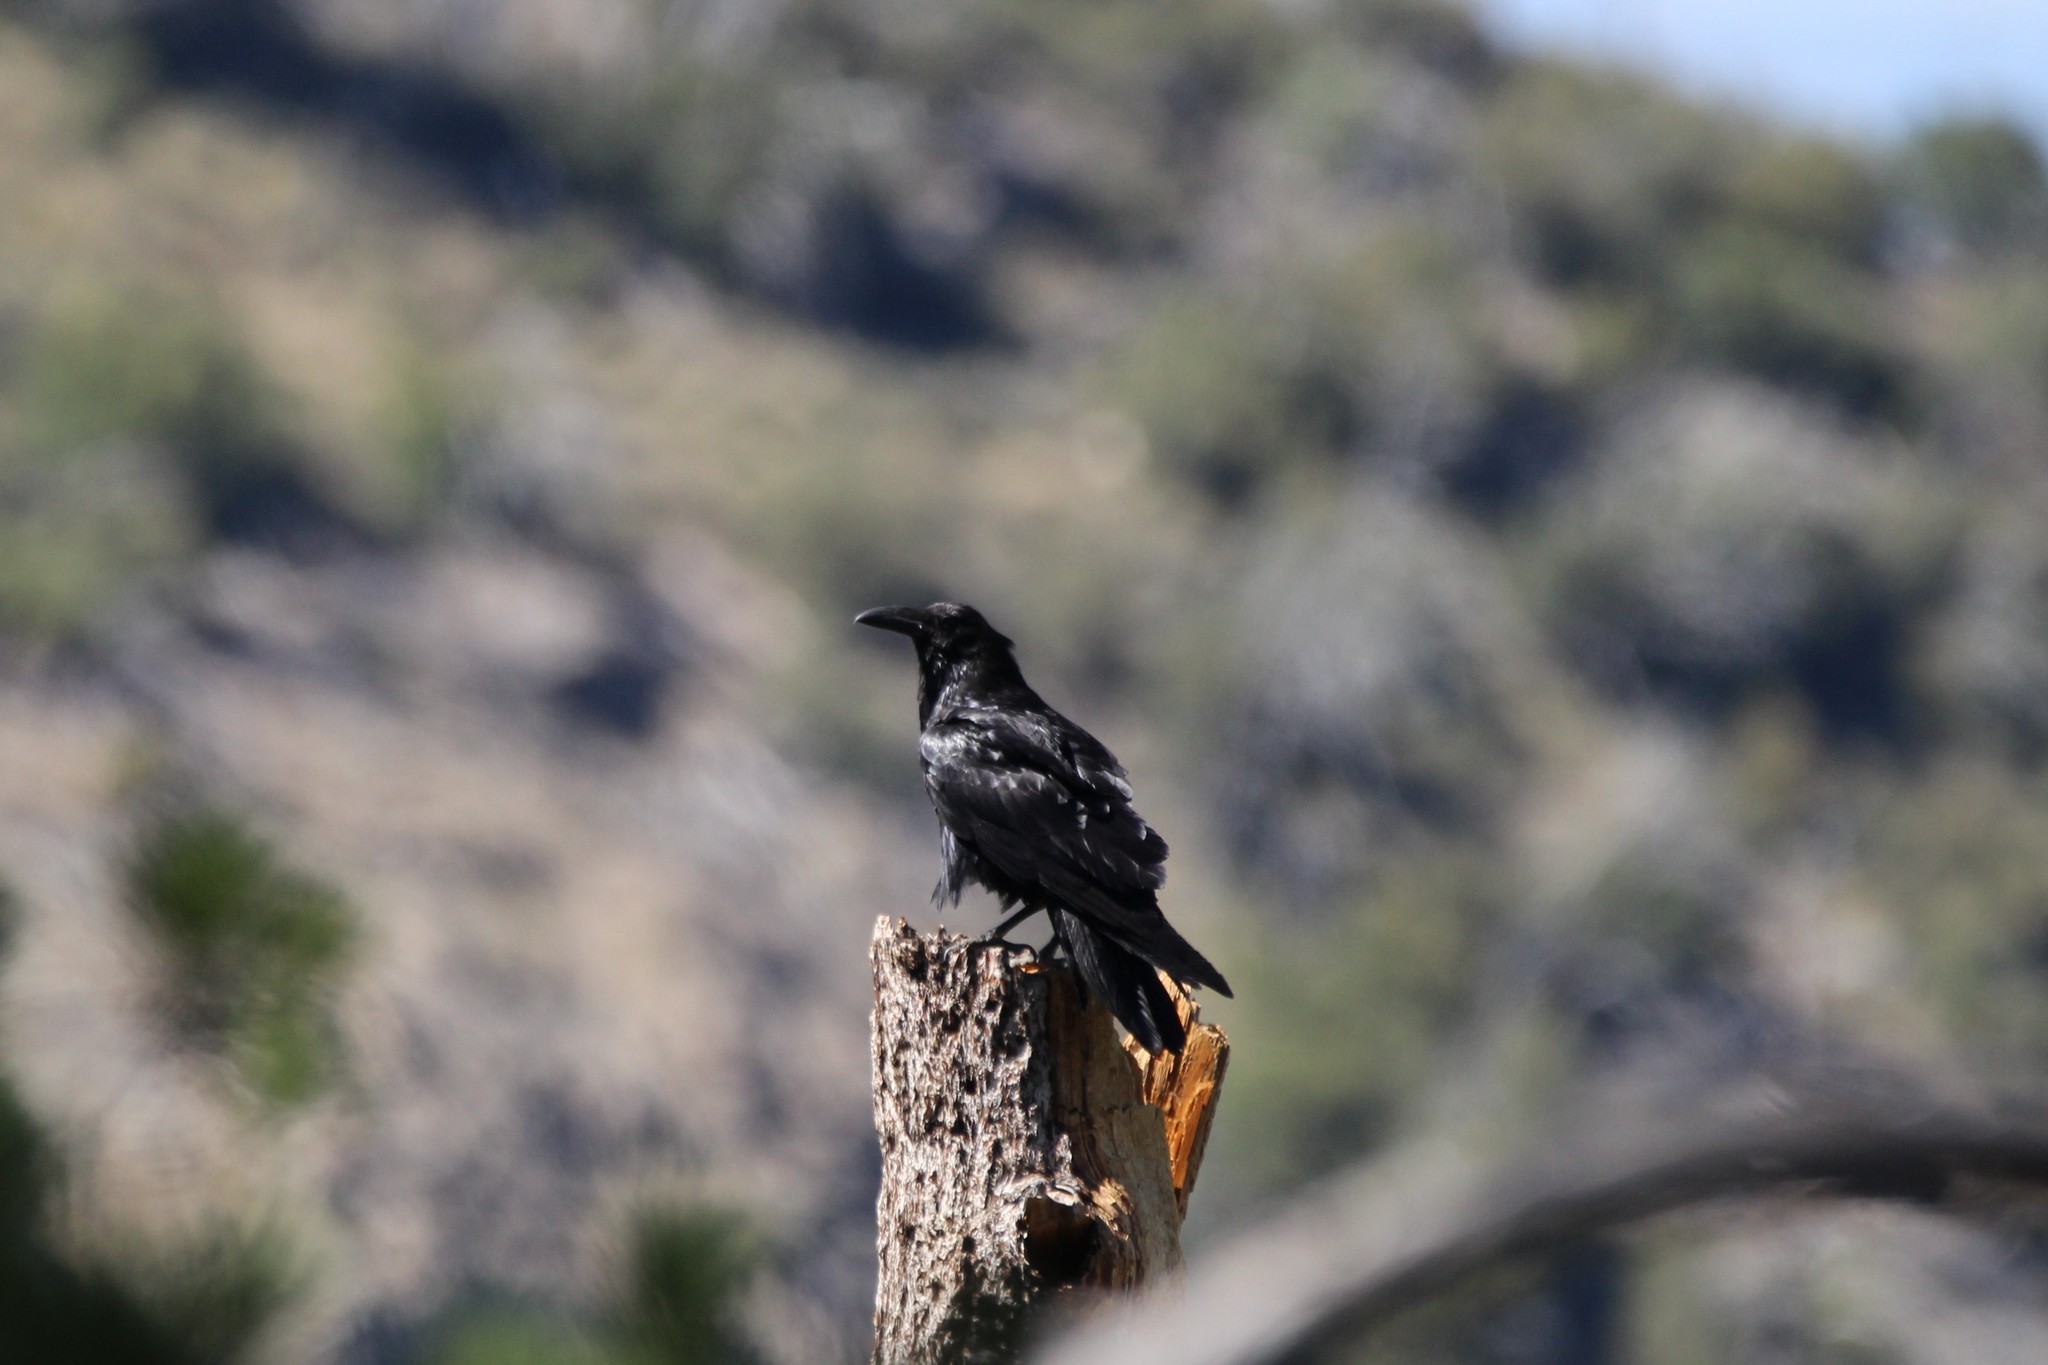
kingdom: Animalia
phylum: Chordata
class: Aves
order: Passeriformes
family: Corvidae
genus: Corvus
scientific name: Corvus corax
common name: Common raven
